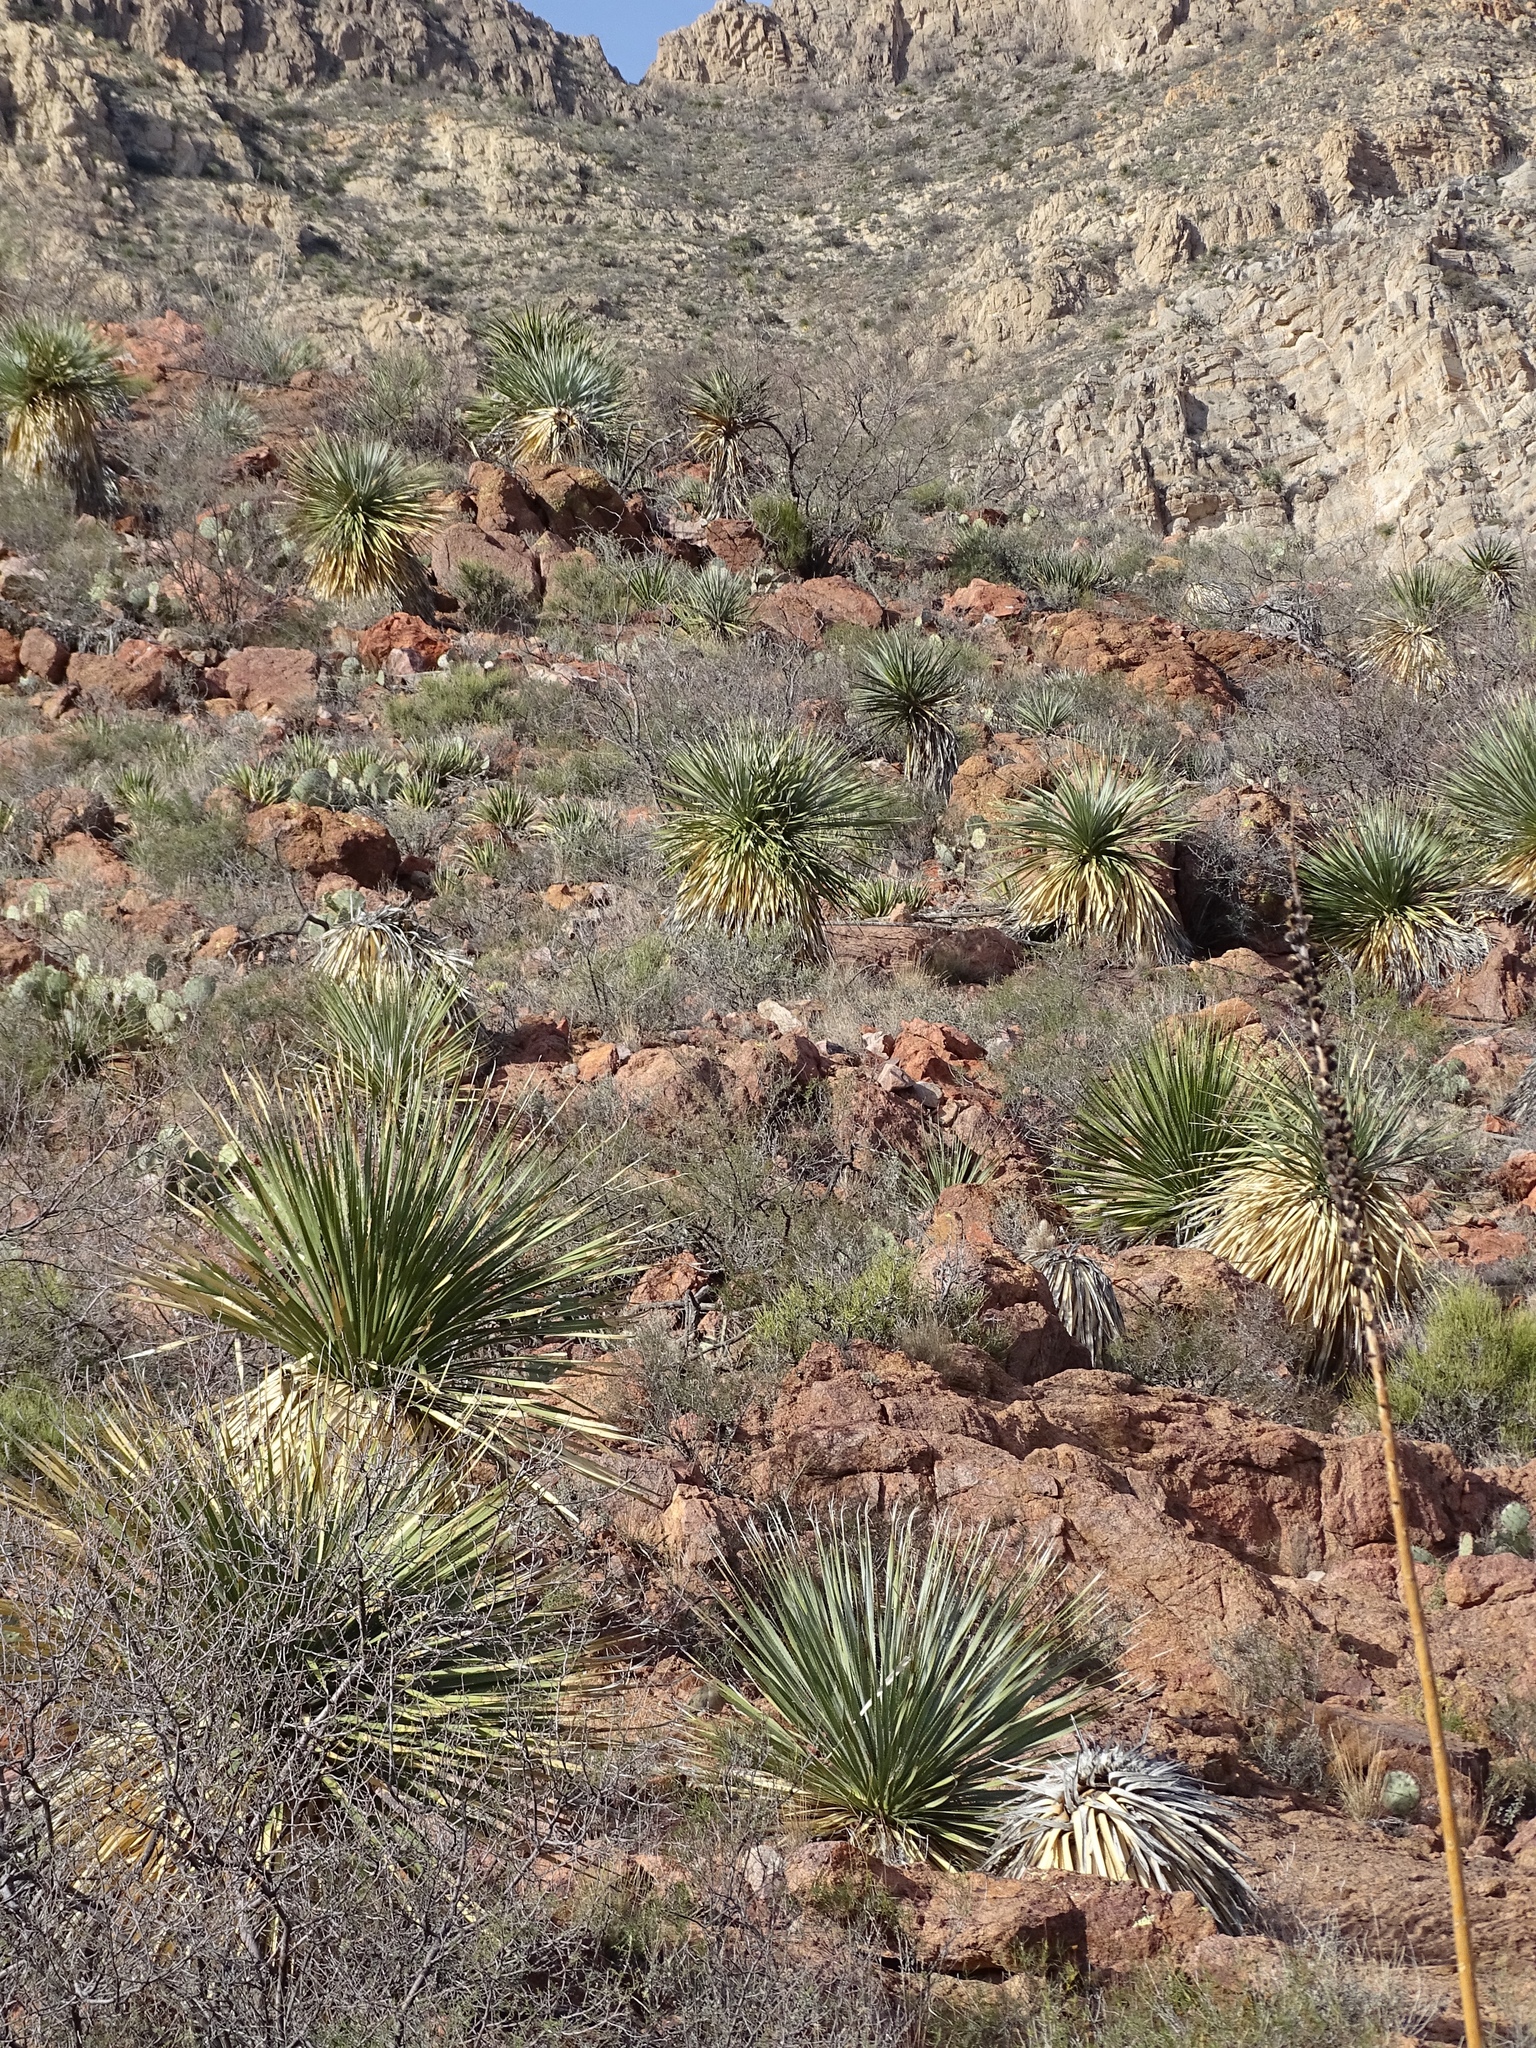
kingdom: Plantae
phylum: Tracheophyta
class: Liliopsida
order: Asparagales
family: Asparagaceae
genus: Dasylirion
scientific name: Dasylirion wheeleri
